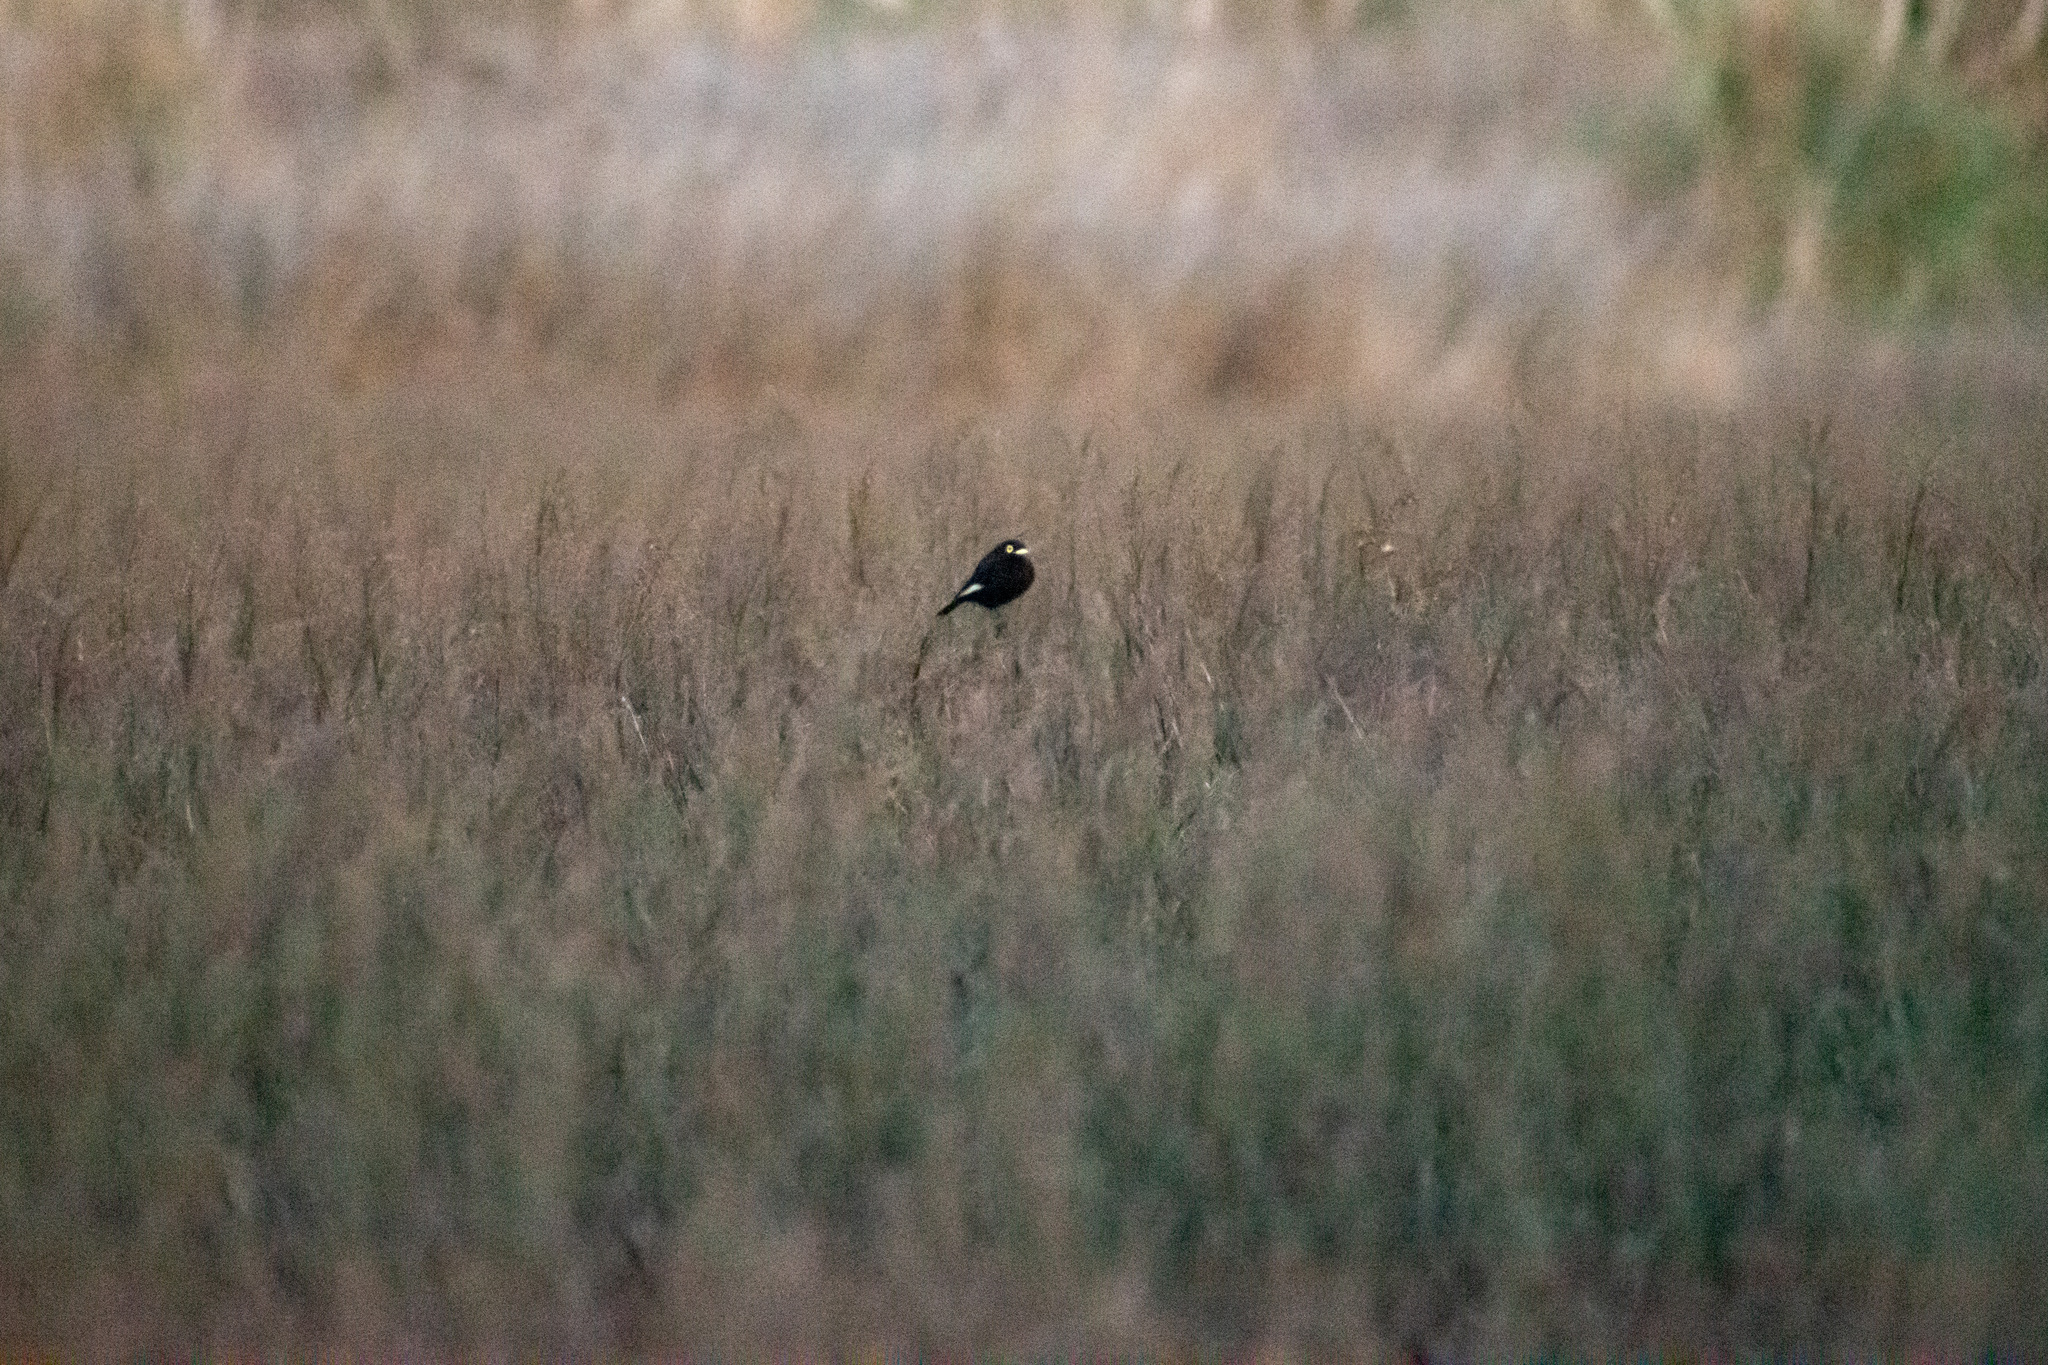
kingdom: Animalia
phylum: Chordata
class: Aves
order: Passeriformes
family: Tyrannidae
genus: Hymenops
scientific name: Hymenops perspicillatus
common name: Spectacled tyrant
